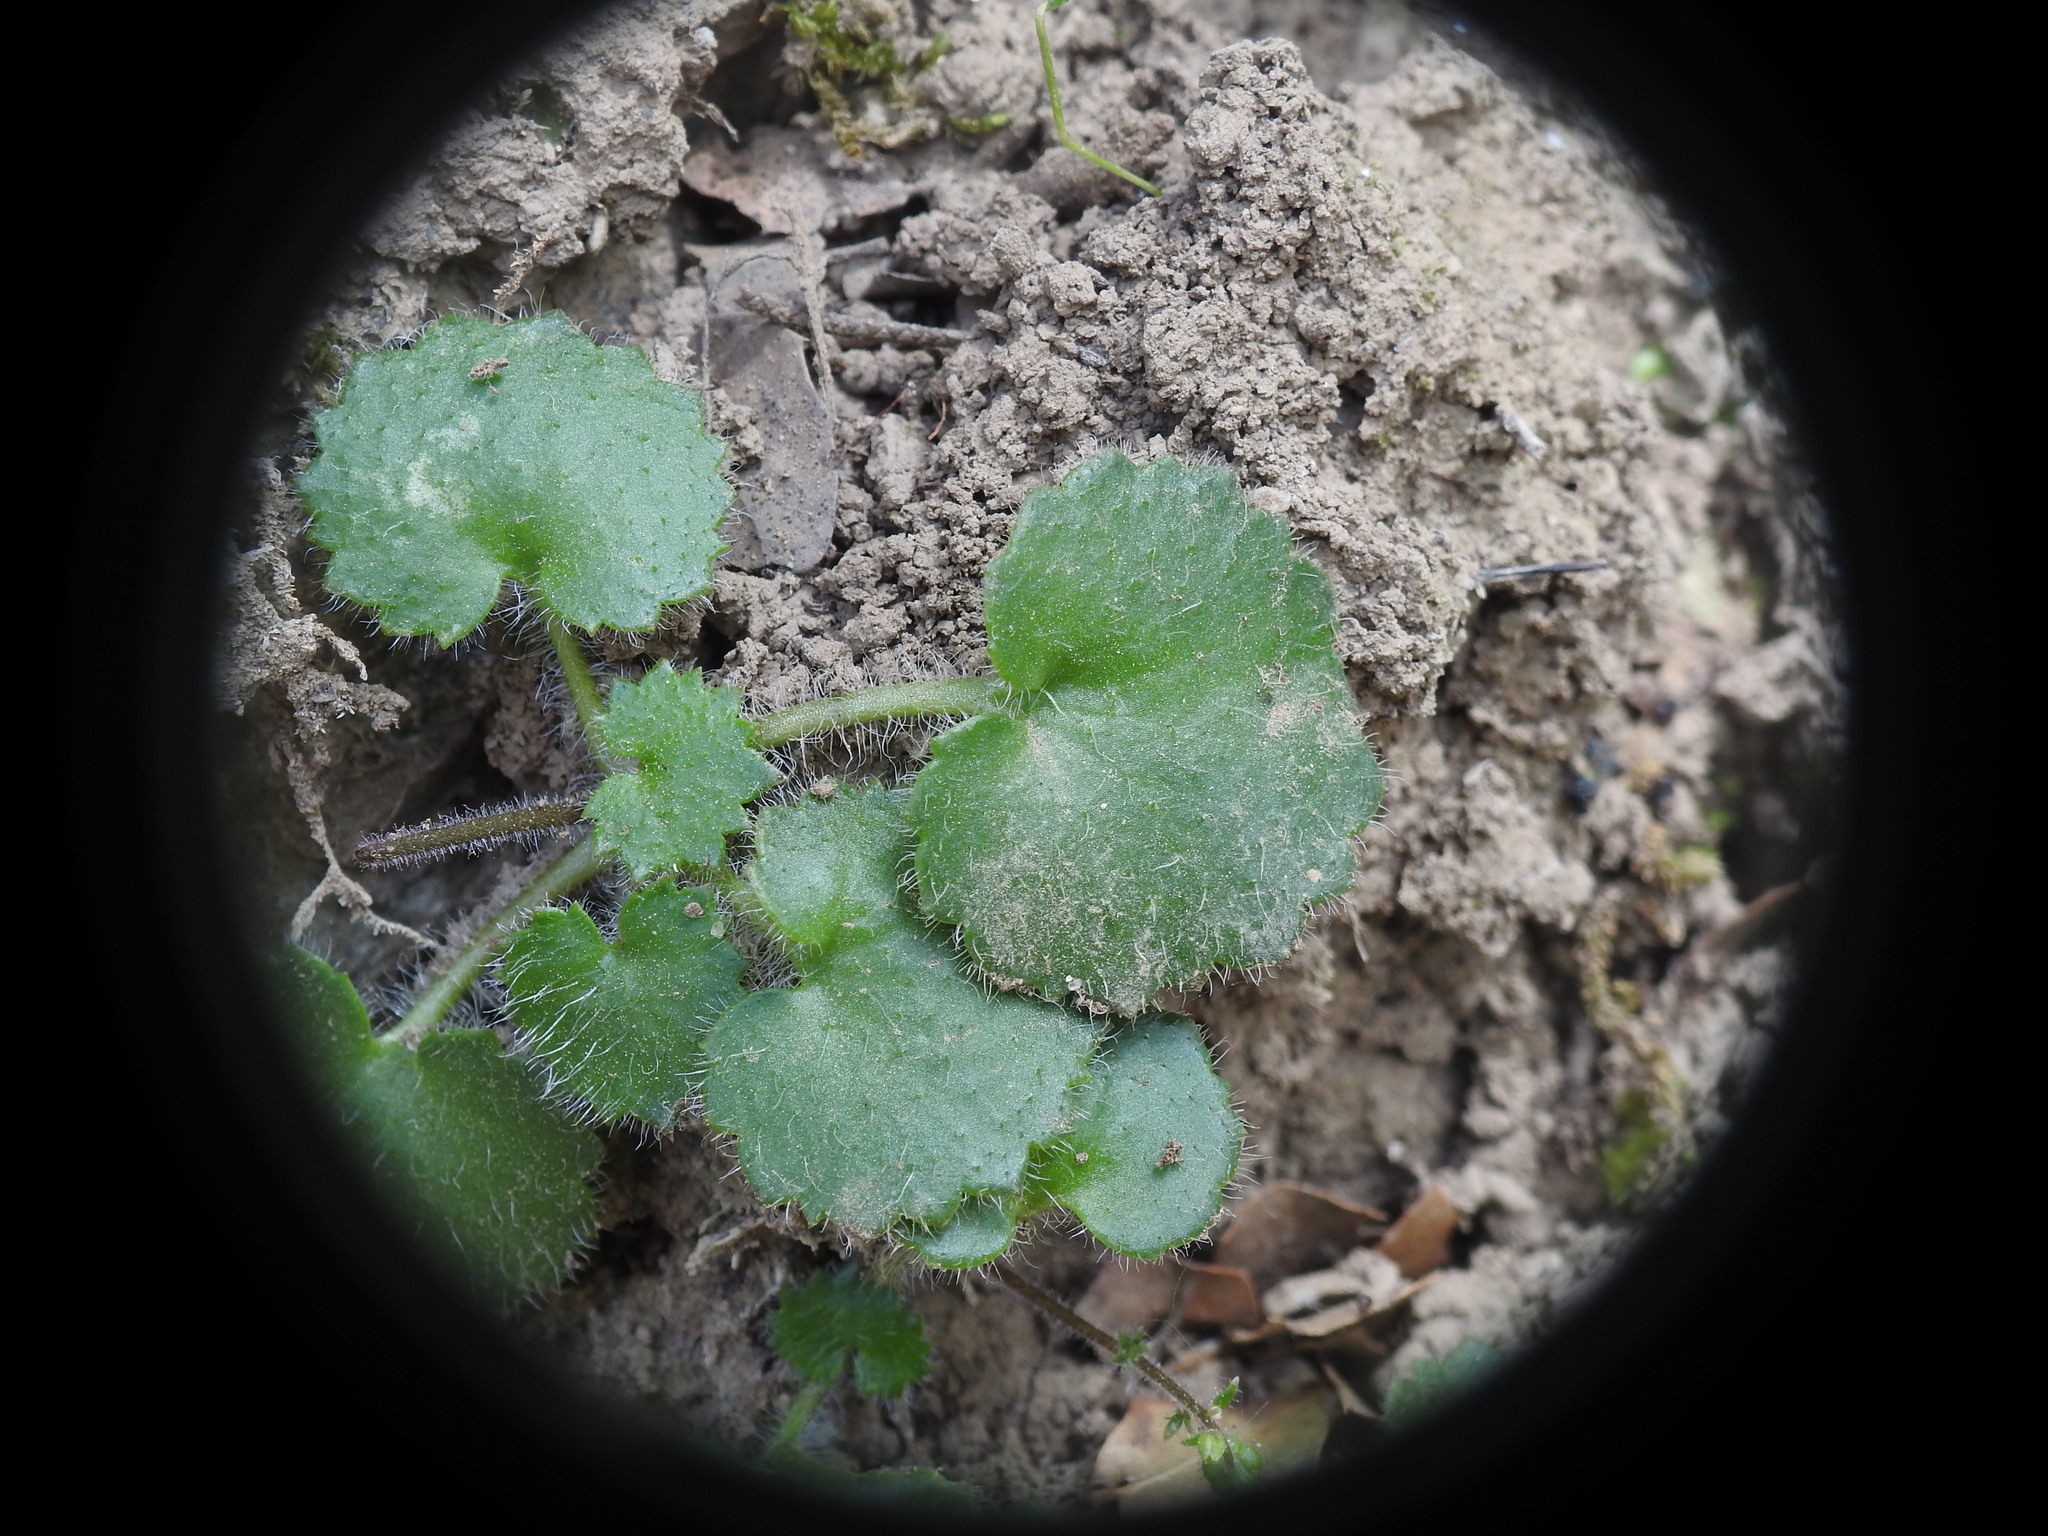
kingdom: Plantae
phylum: Tracheophyta
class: Magnoliopsida
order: Saxifragales
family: Saxifragaceae
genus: Saxifraga
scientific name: Saxifraga rotundifolia
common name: Round-leaved saxifrage
